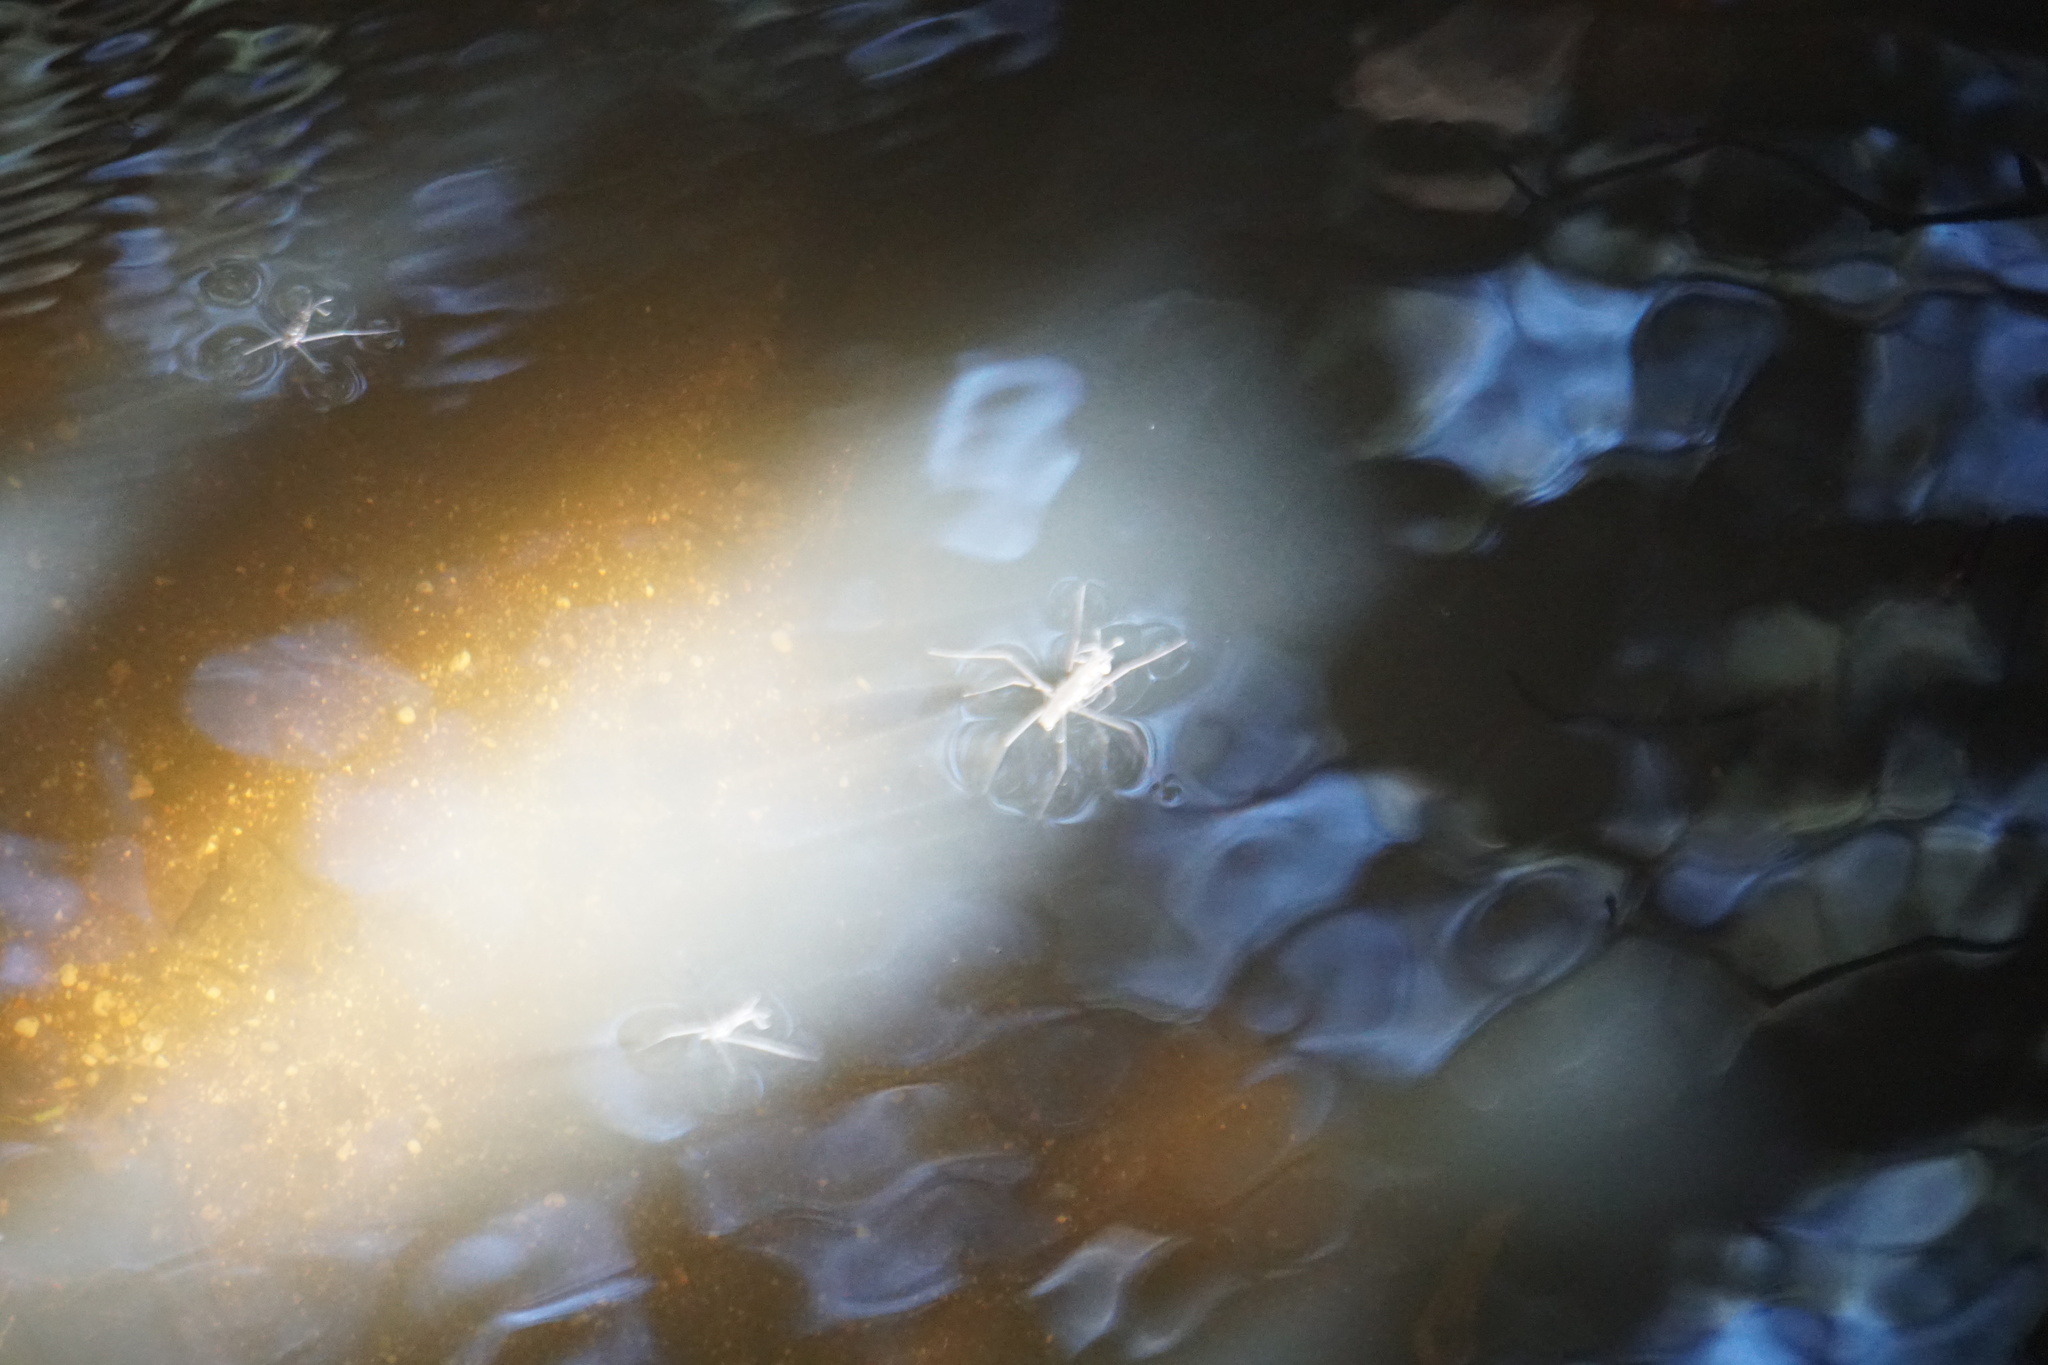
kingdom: Animalia
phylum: Arthropoda
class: Insecta
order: Hemiptera
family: Gerridae
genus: Aquarius
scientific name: Aquarius remigis
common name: Common water strider
